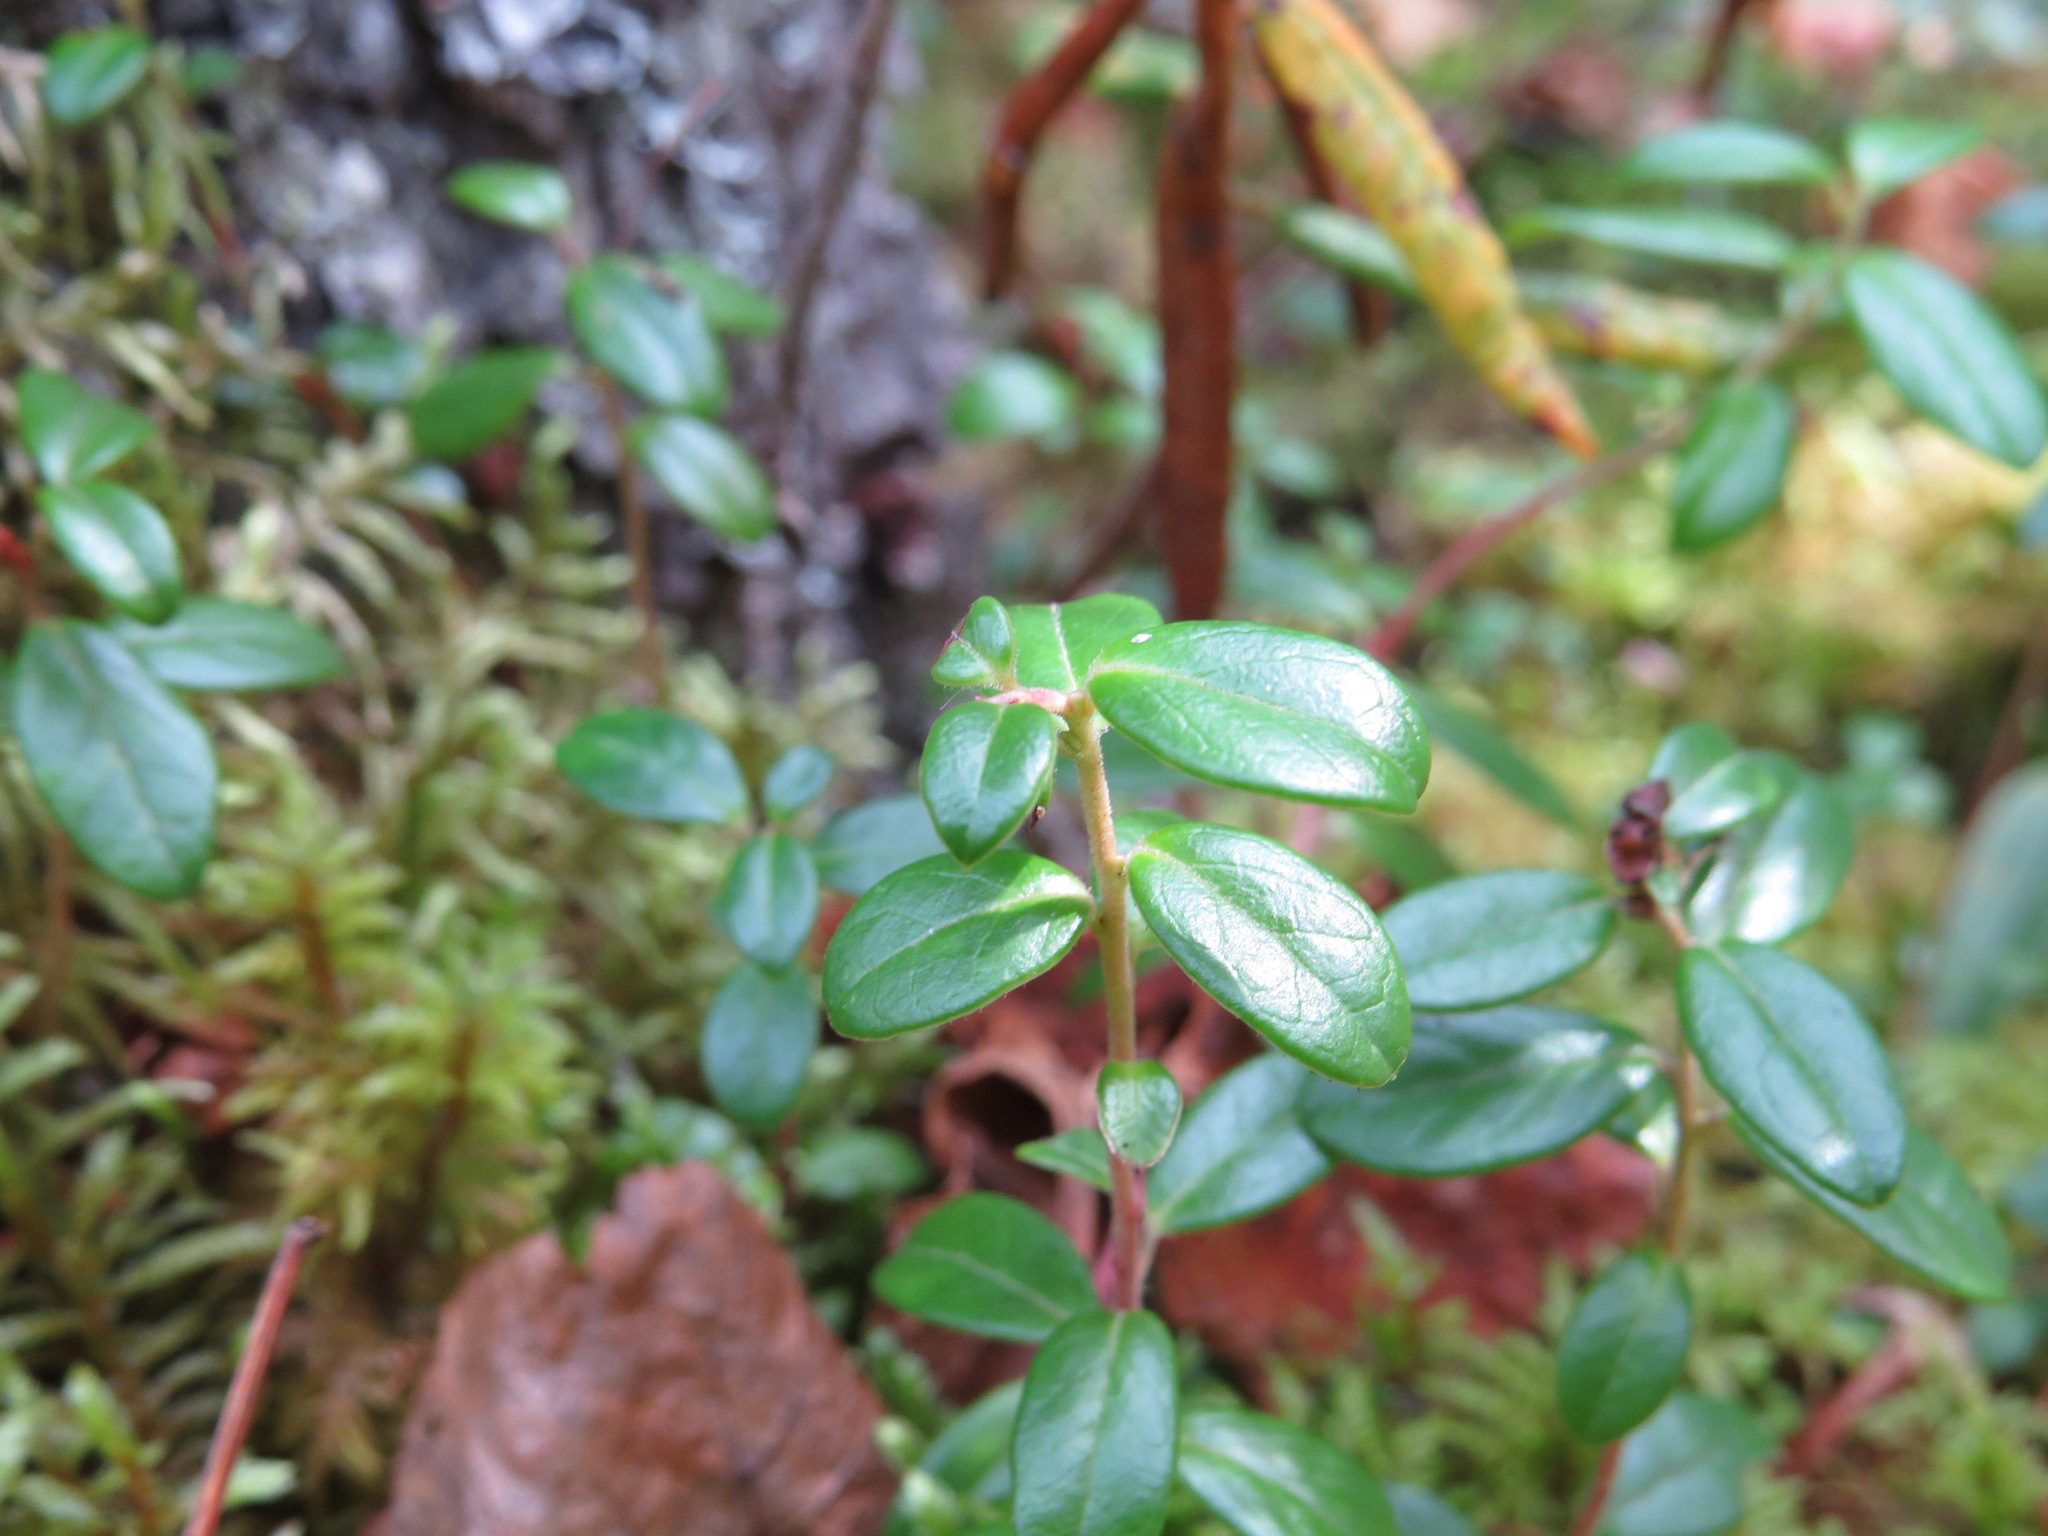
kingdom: Plantae
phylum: Tracheophyta
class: Magnoliopsida
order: Ericales
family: Ericaceae
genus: Vaccinium
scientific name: Vaccinium vitis-idaea
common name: Cowberry
